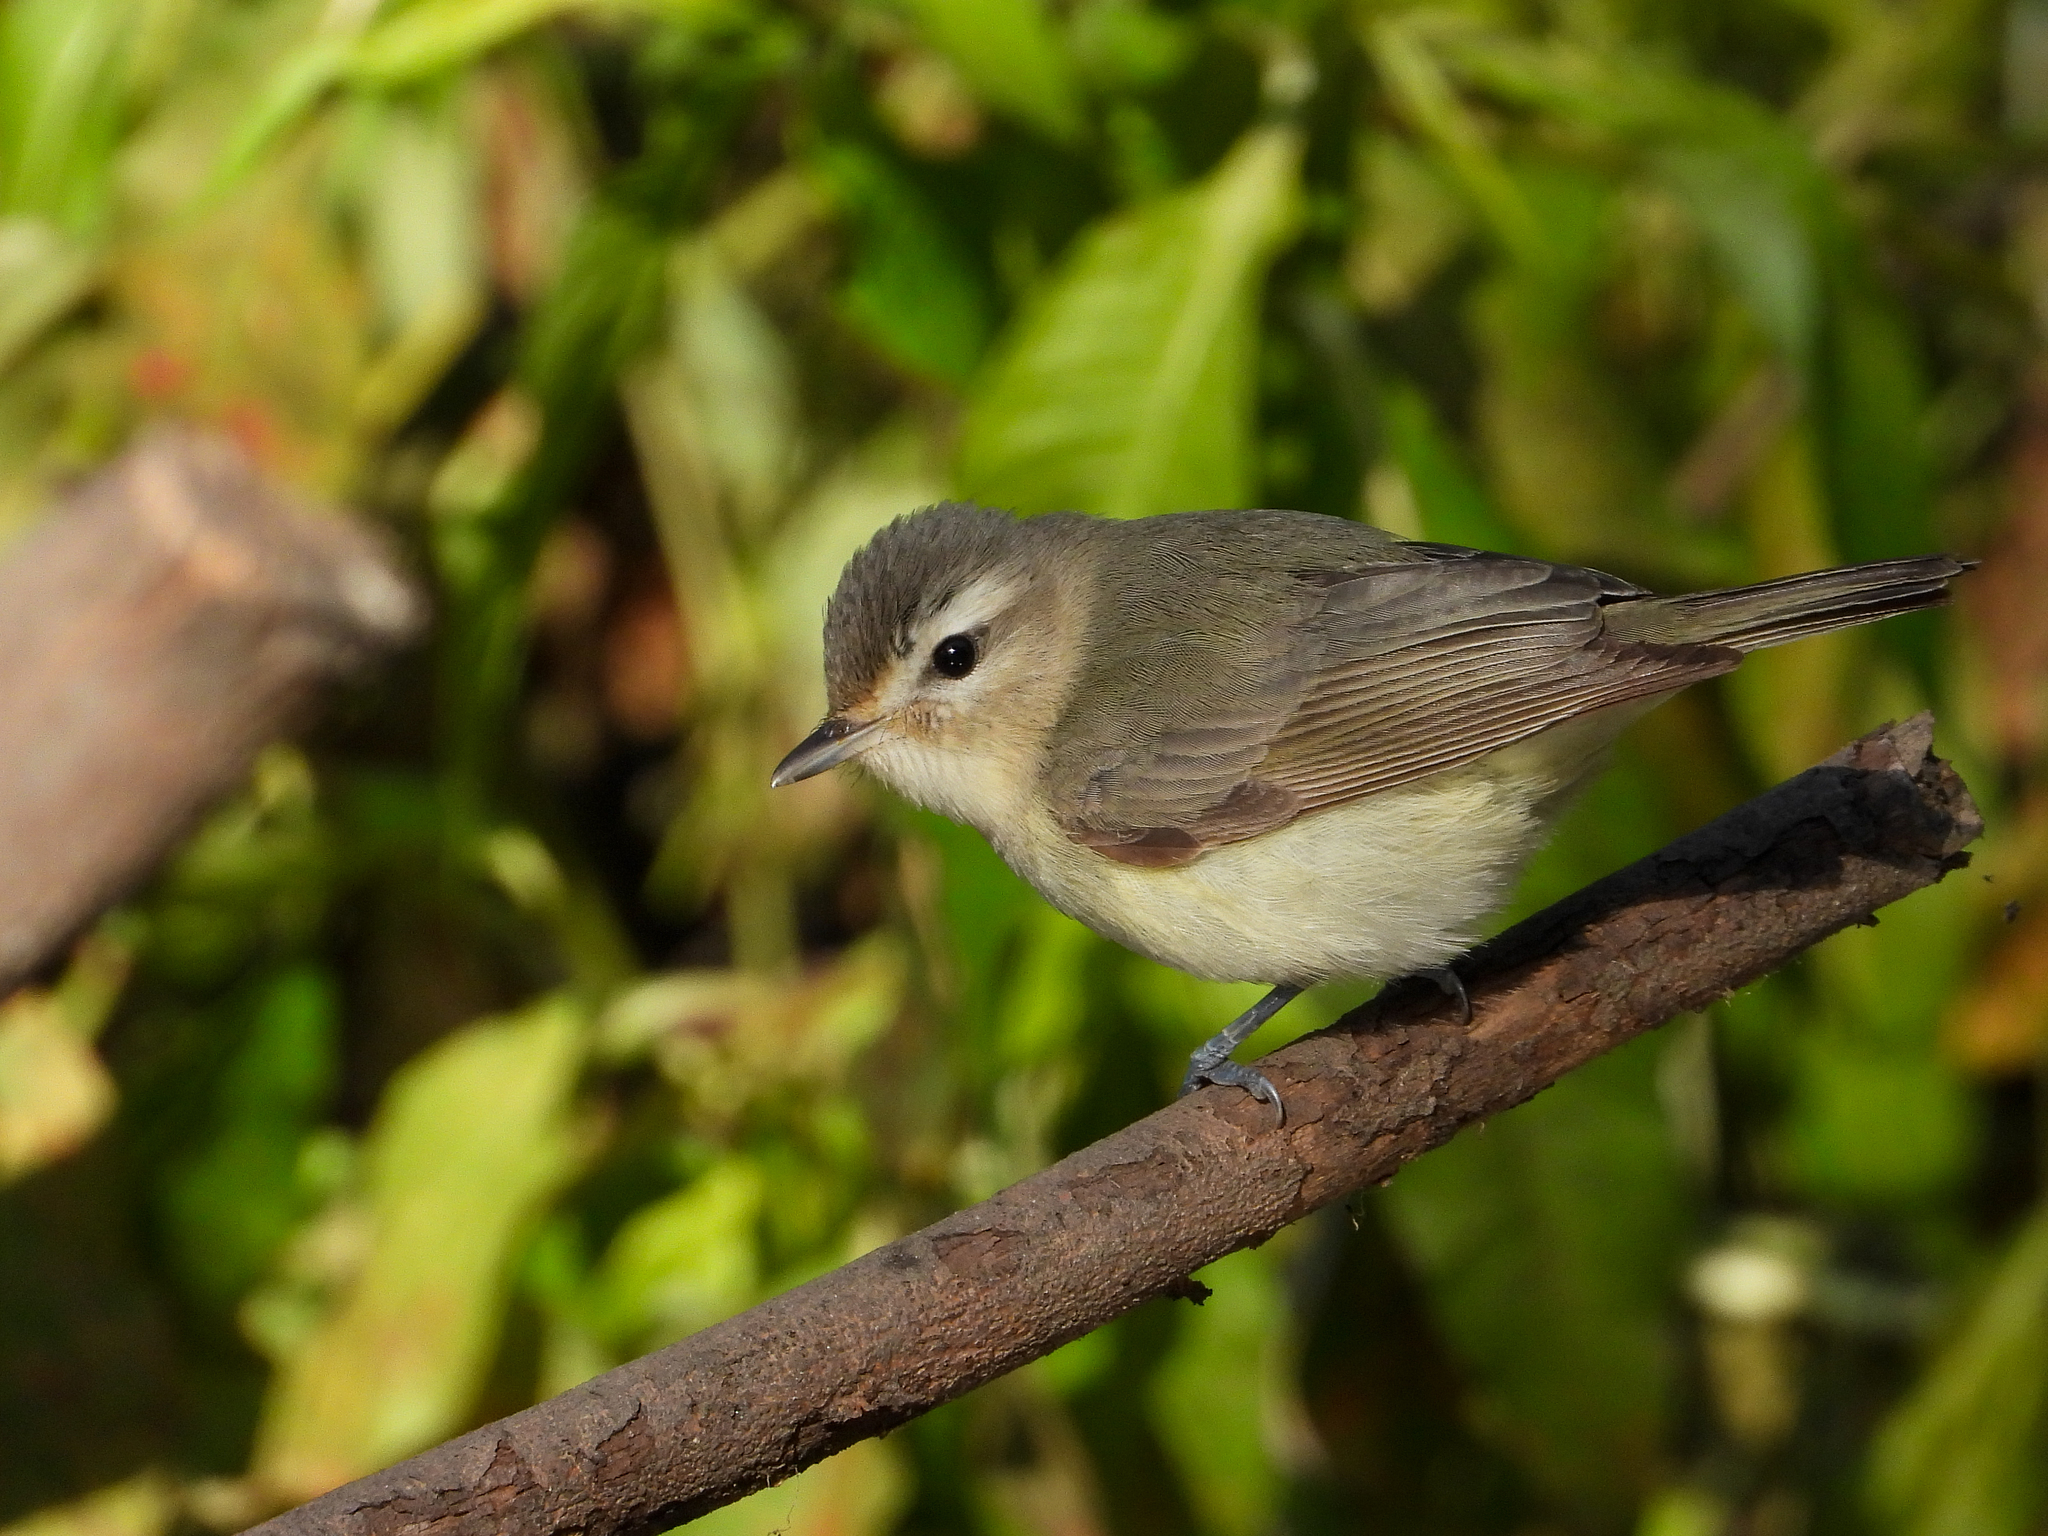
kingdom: Animalia
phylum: Chordata
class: Aves
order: Passeriformes
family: Vireonidae
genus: Vireo
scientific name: Vireo gilvus
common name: Warbling vireo
